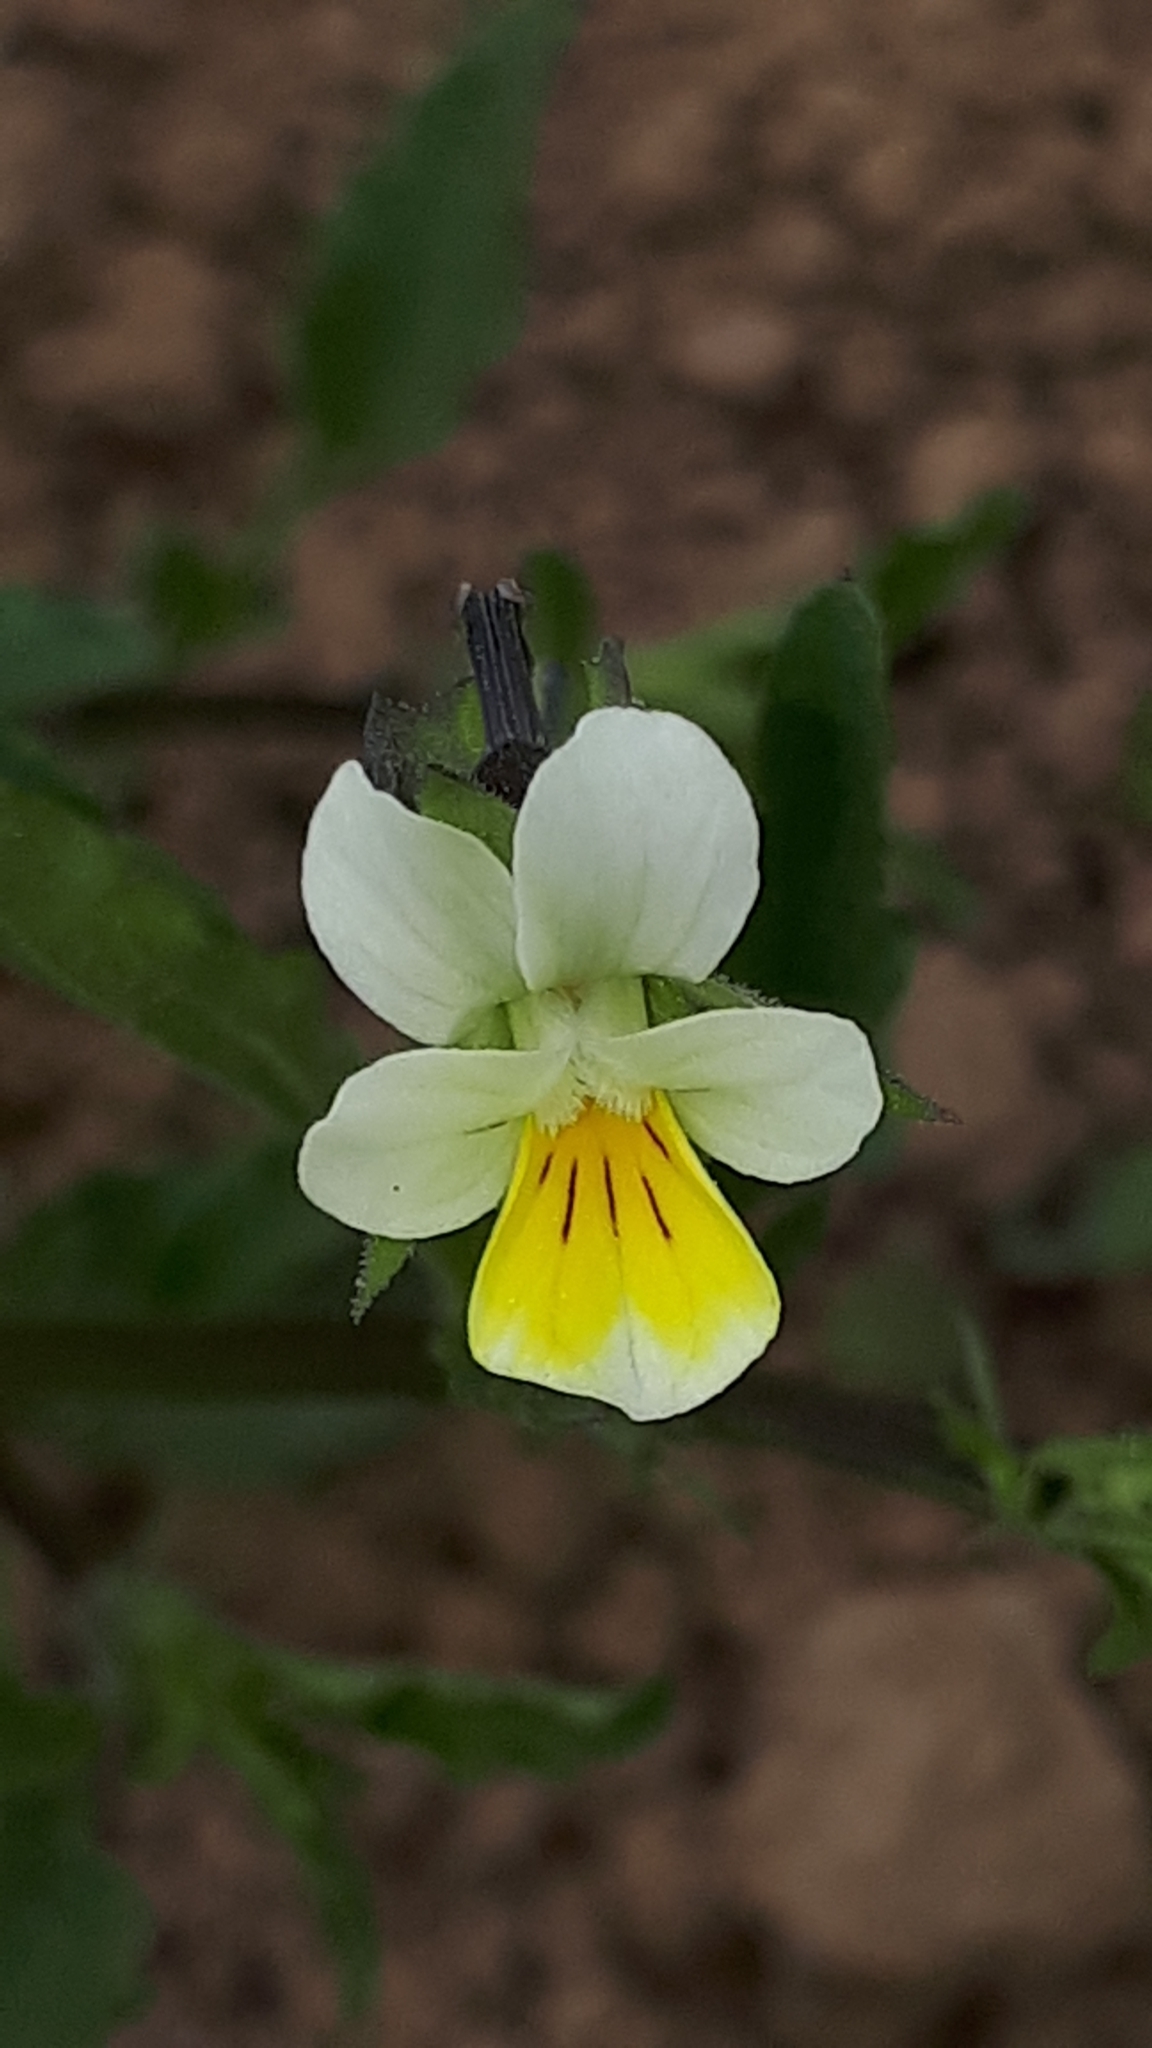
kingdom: Plantae
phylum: Tracheophyta
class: Magnoliopsida
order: Malpighiales
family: Violaceae
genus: Viola
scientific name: Viola arvensis
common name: Field pansy
